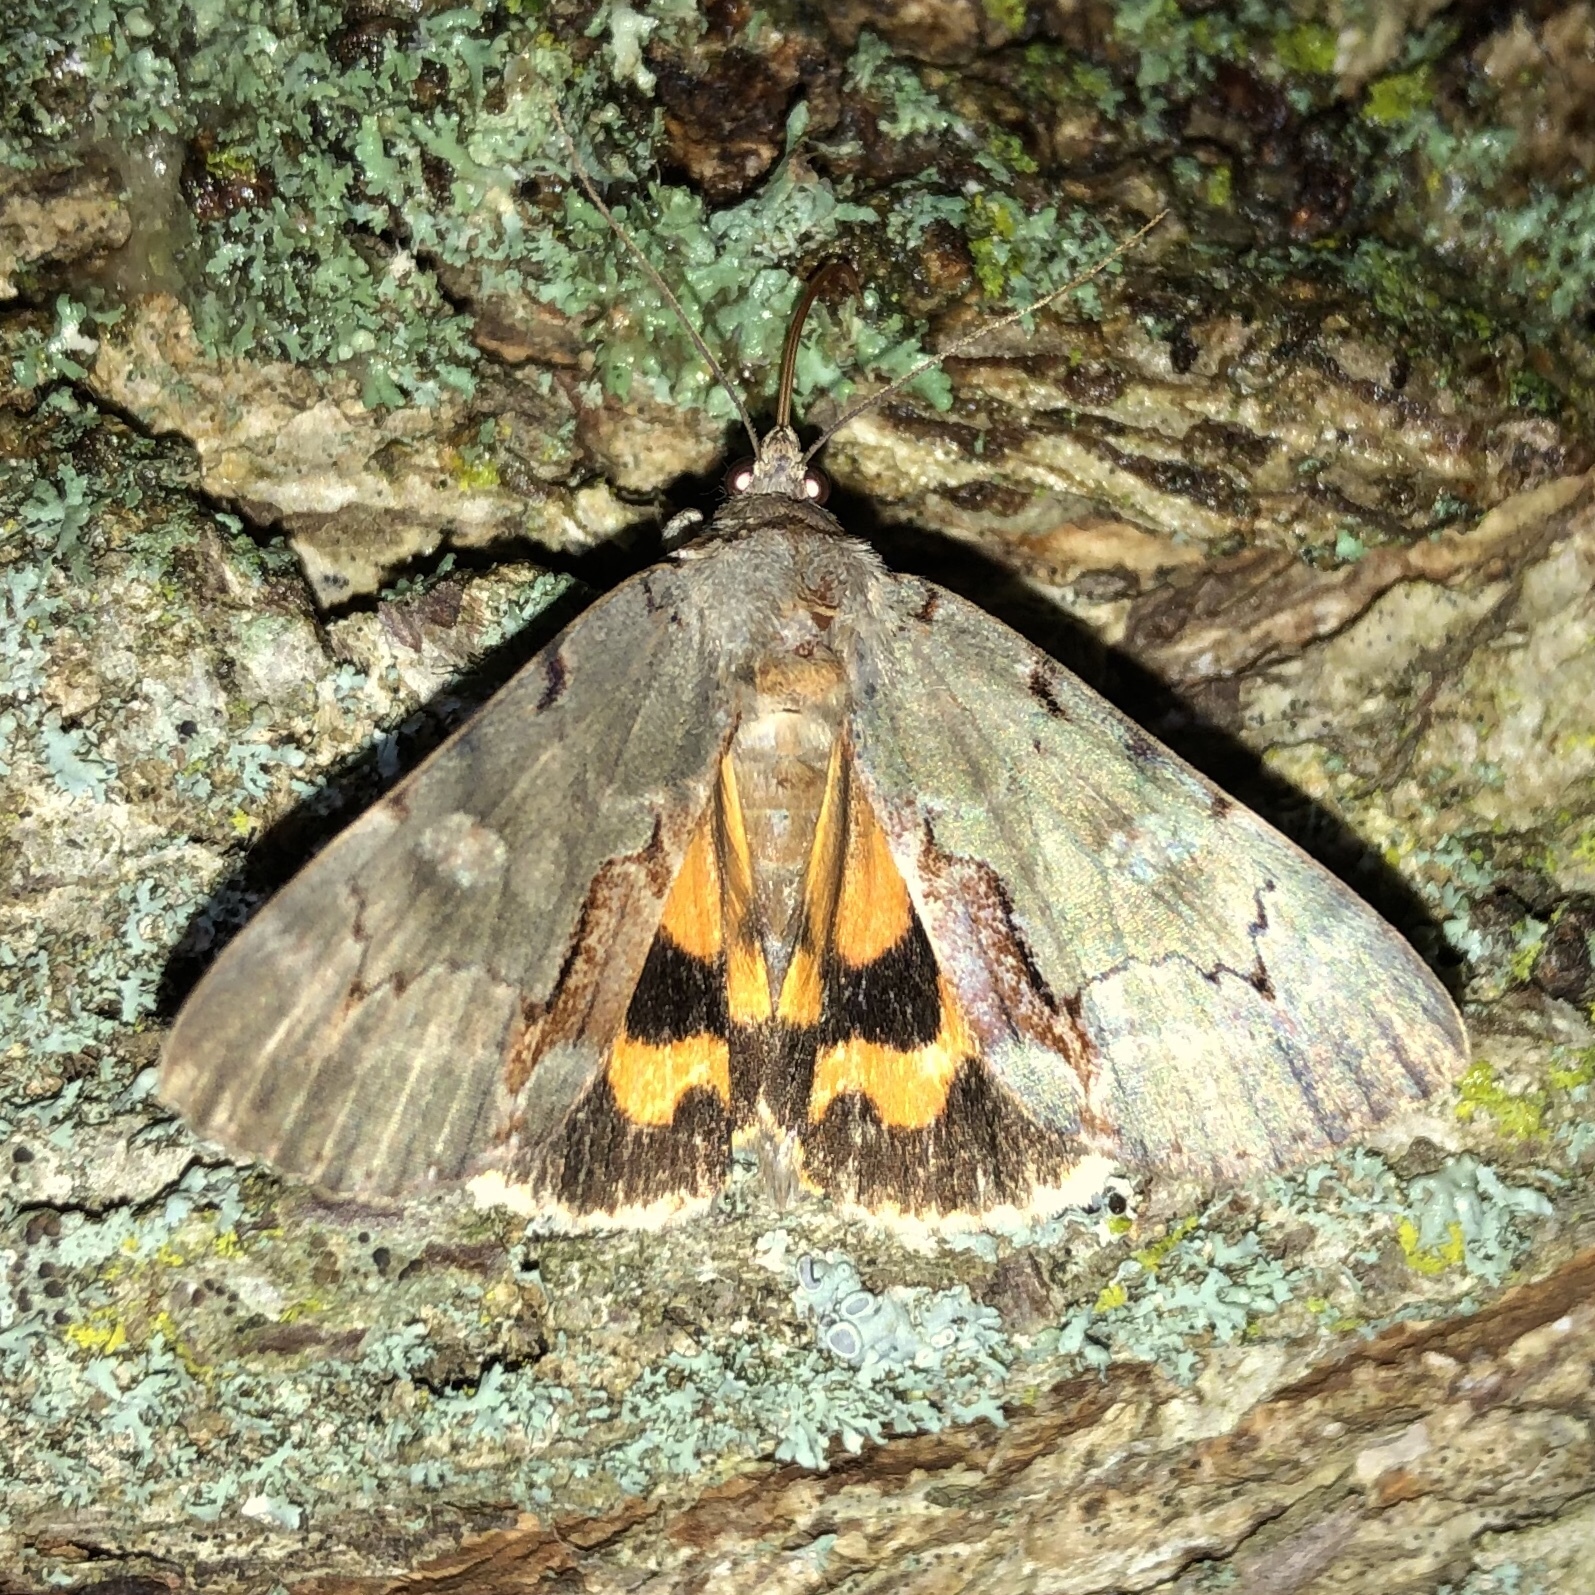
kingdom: Animalia
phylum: Arthropoda
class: Insecta
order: Lepidoptera
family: Erebidae
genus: Catocala
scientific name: Catocala grynea
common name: Woody underwing
